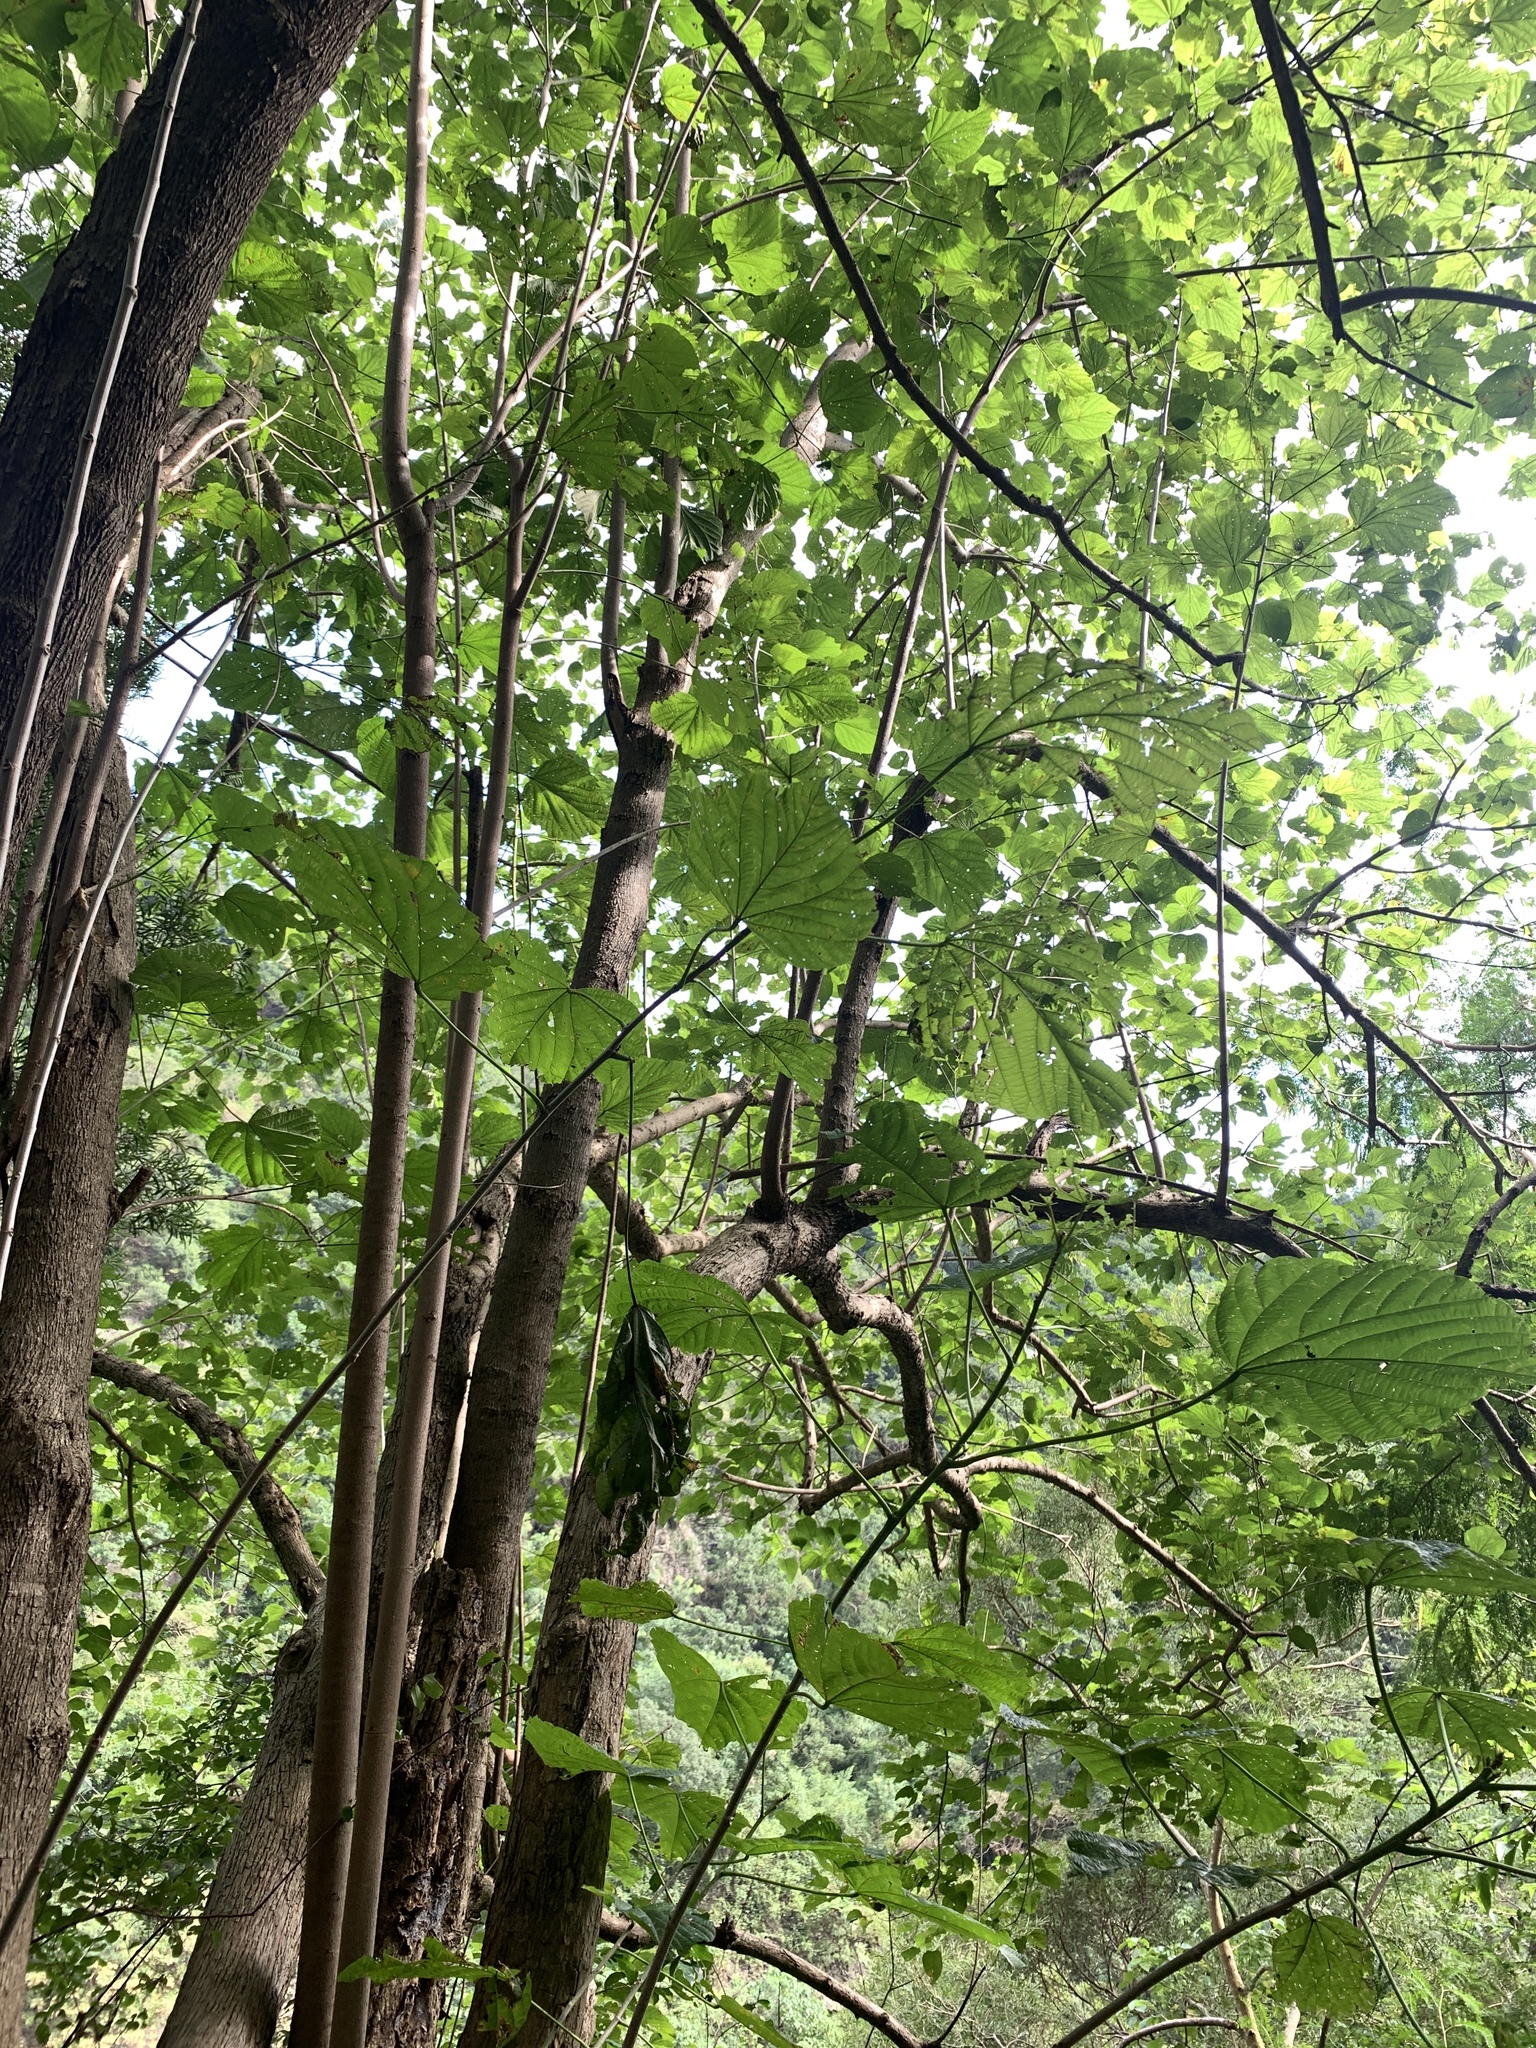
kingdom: Plantae
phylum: Tracheophyta
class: Magnoliopsida
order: Malvales
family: Malvaceae
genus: Kleinhovia
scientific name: Kleinhovia hospita
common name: Guest-tree
